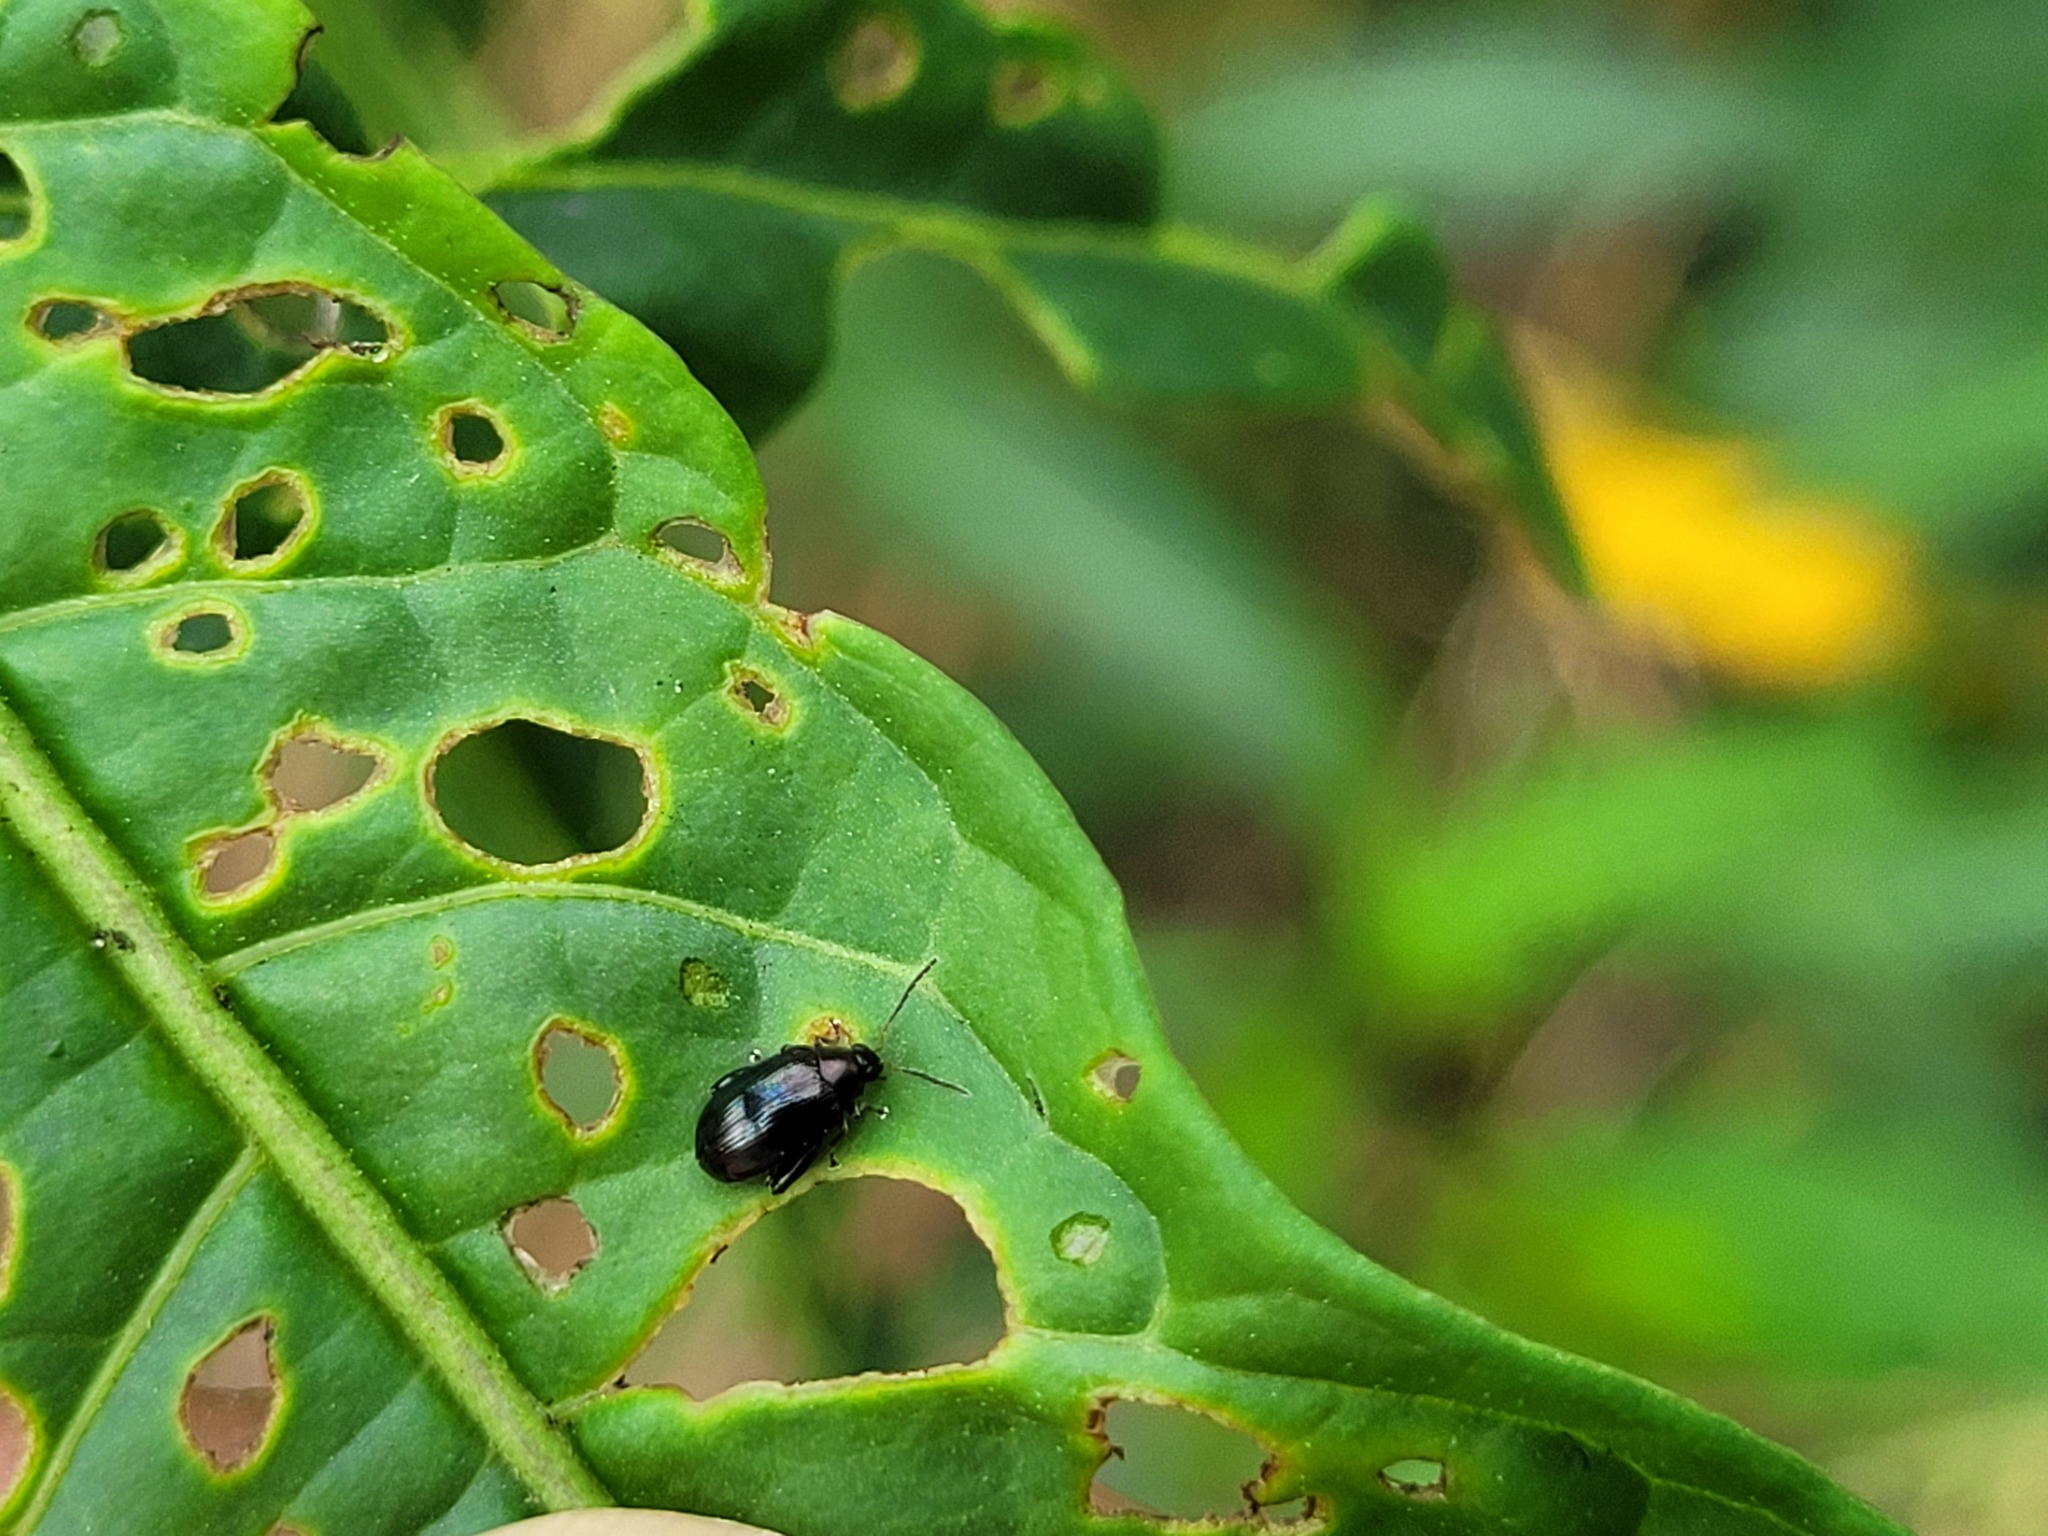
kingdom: Animalia
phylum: Arthropoda
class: Insecta
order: Coleoptera
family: Chrysomelidae
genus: Psylliodes
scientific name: Psylliodes brettinghami
